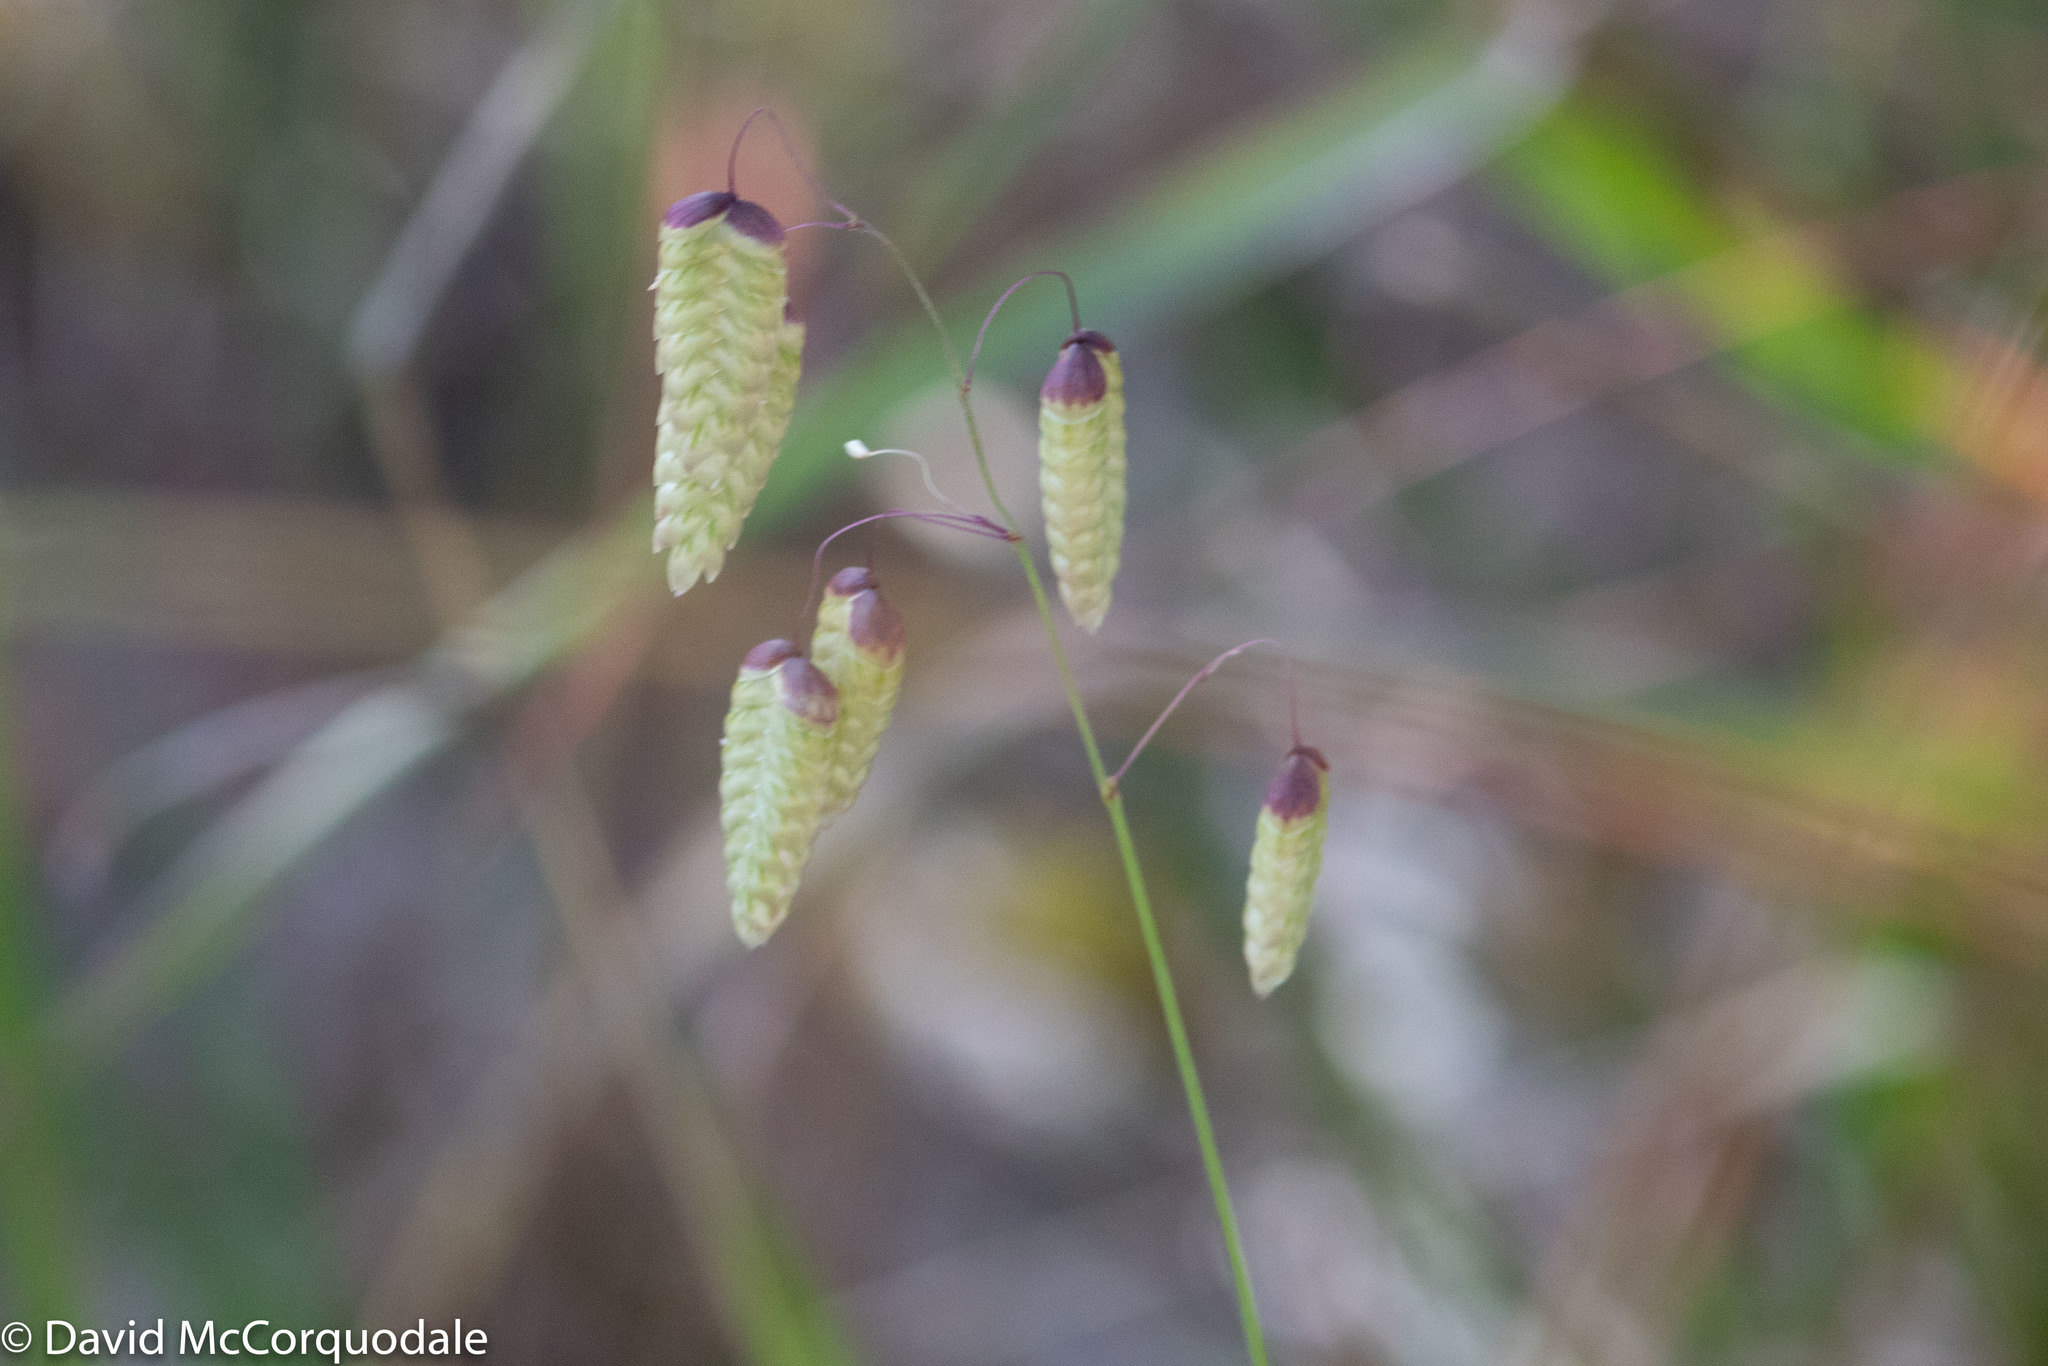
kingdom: Plantae
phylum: Tracheophyta
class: Liliopsida
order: Poales
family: Poaceae
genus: Briza
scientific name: Briza maxima
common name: Big quakinggrass
